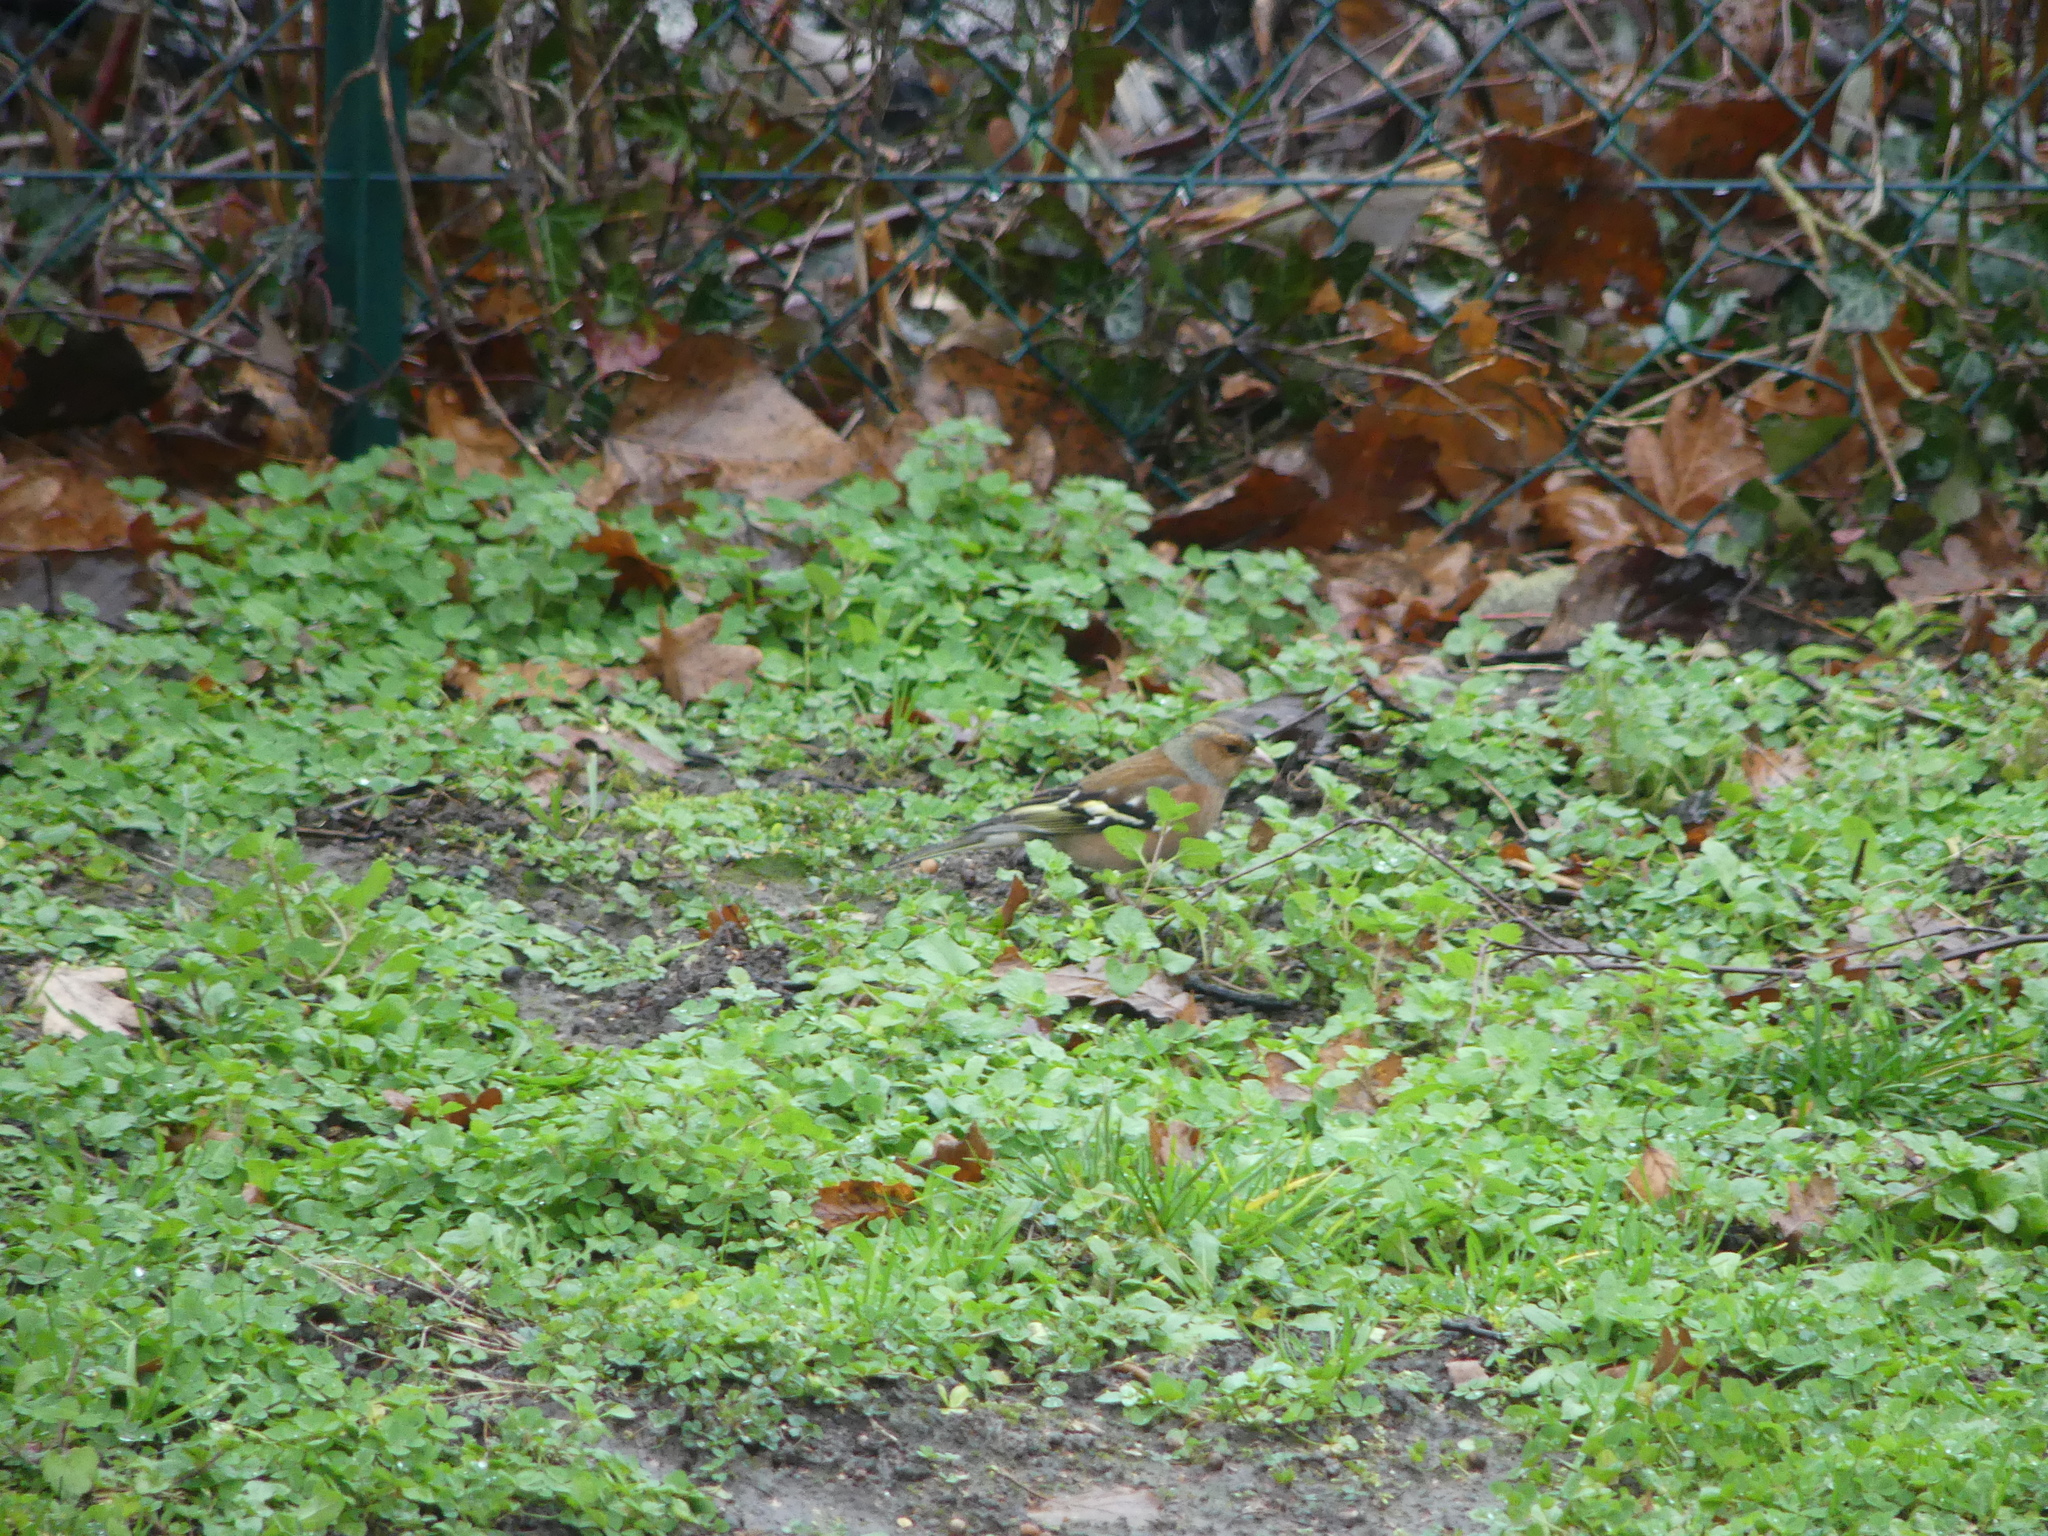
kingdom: Animalia
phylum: Chordata
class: Aves
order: Passeriformes
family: Fringillidae
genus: Fringilla
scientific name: Fringilla coelebs
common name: Common chaffinch
